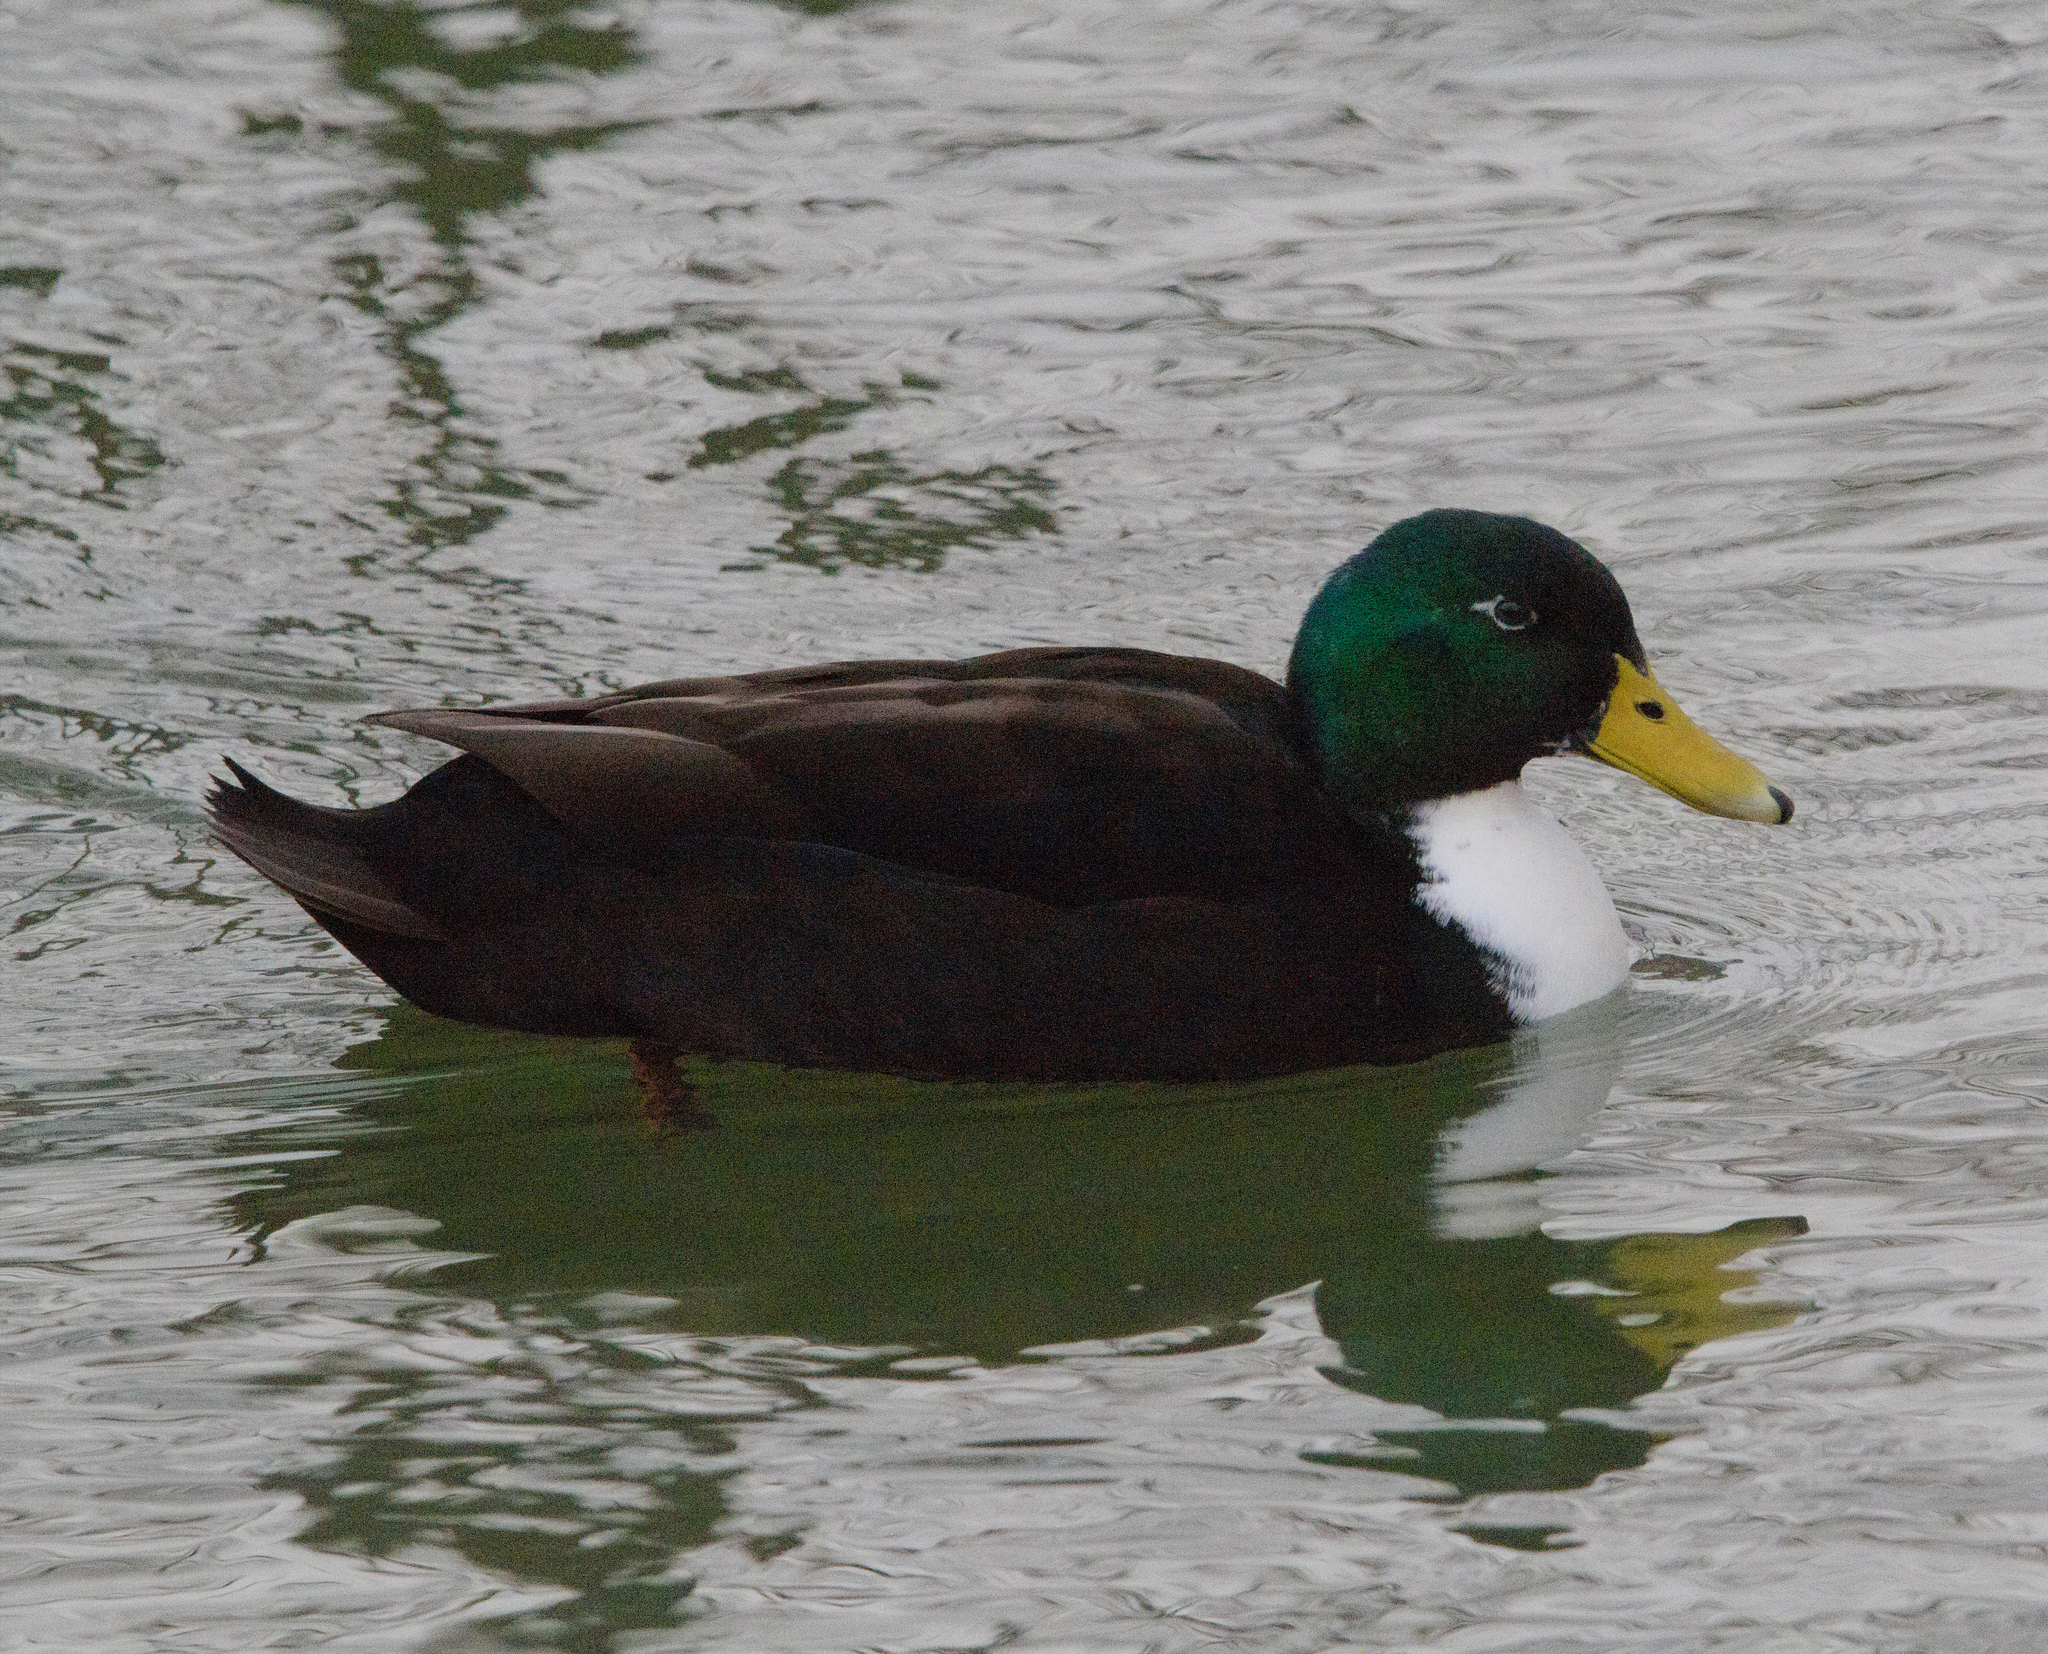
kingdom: Animalia
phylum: Chordata
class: Aves
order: Anseriformes
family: Anatidae
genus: Anas
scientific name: Anas platyrhynchos
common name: Mallard
